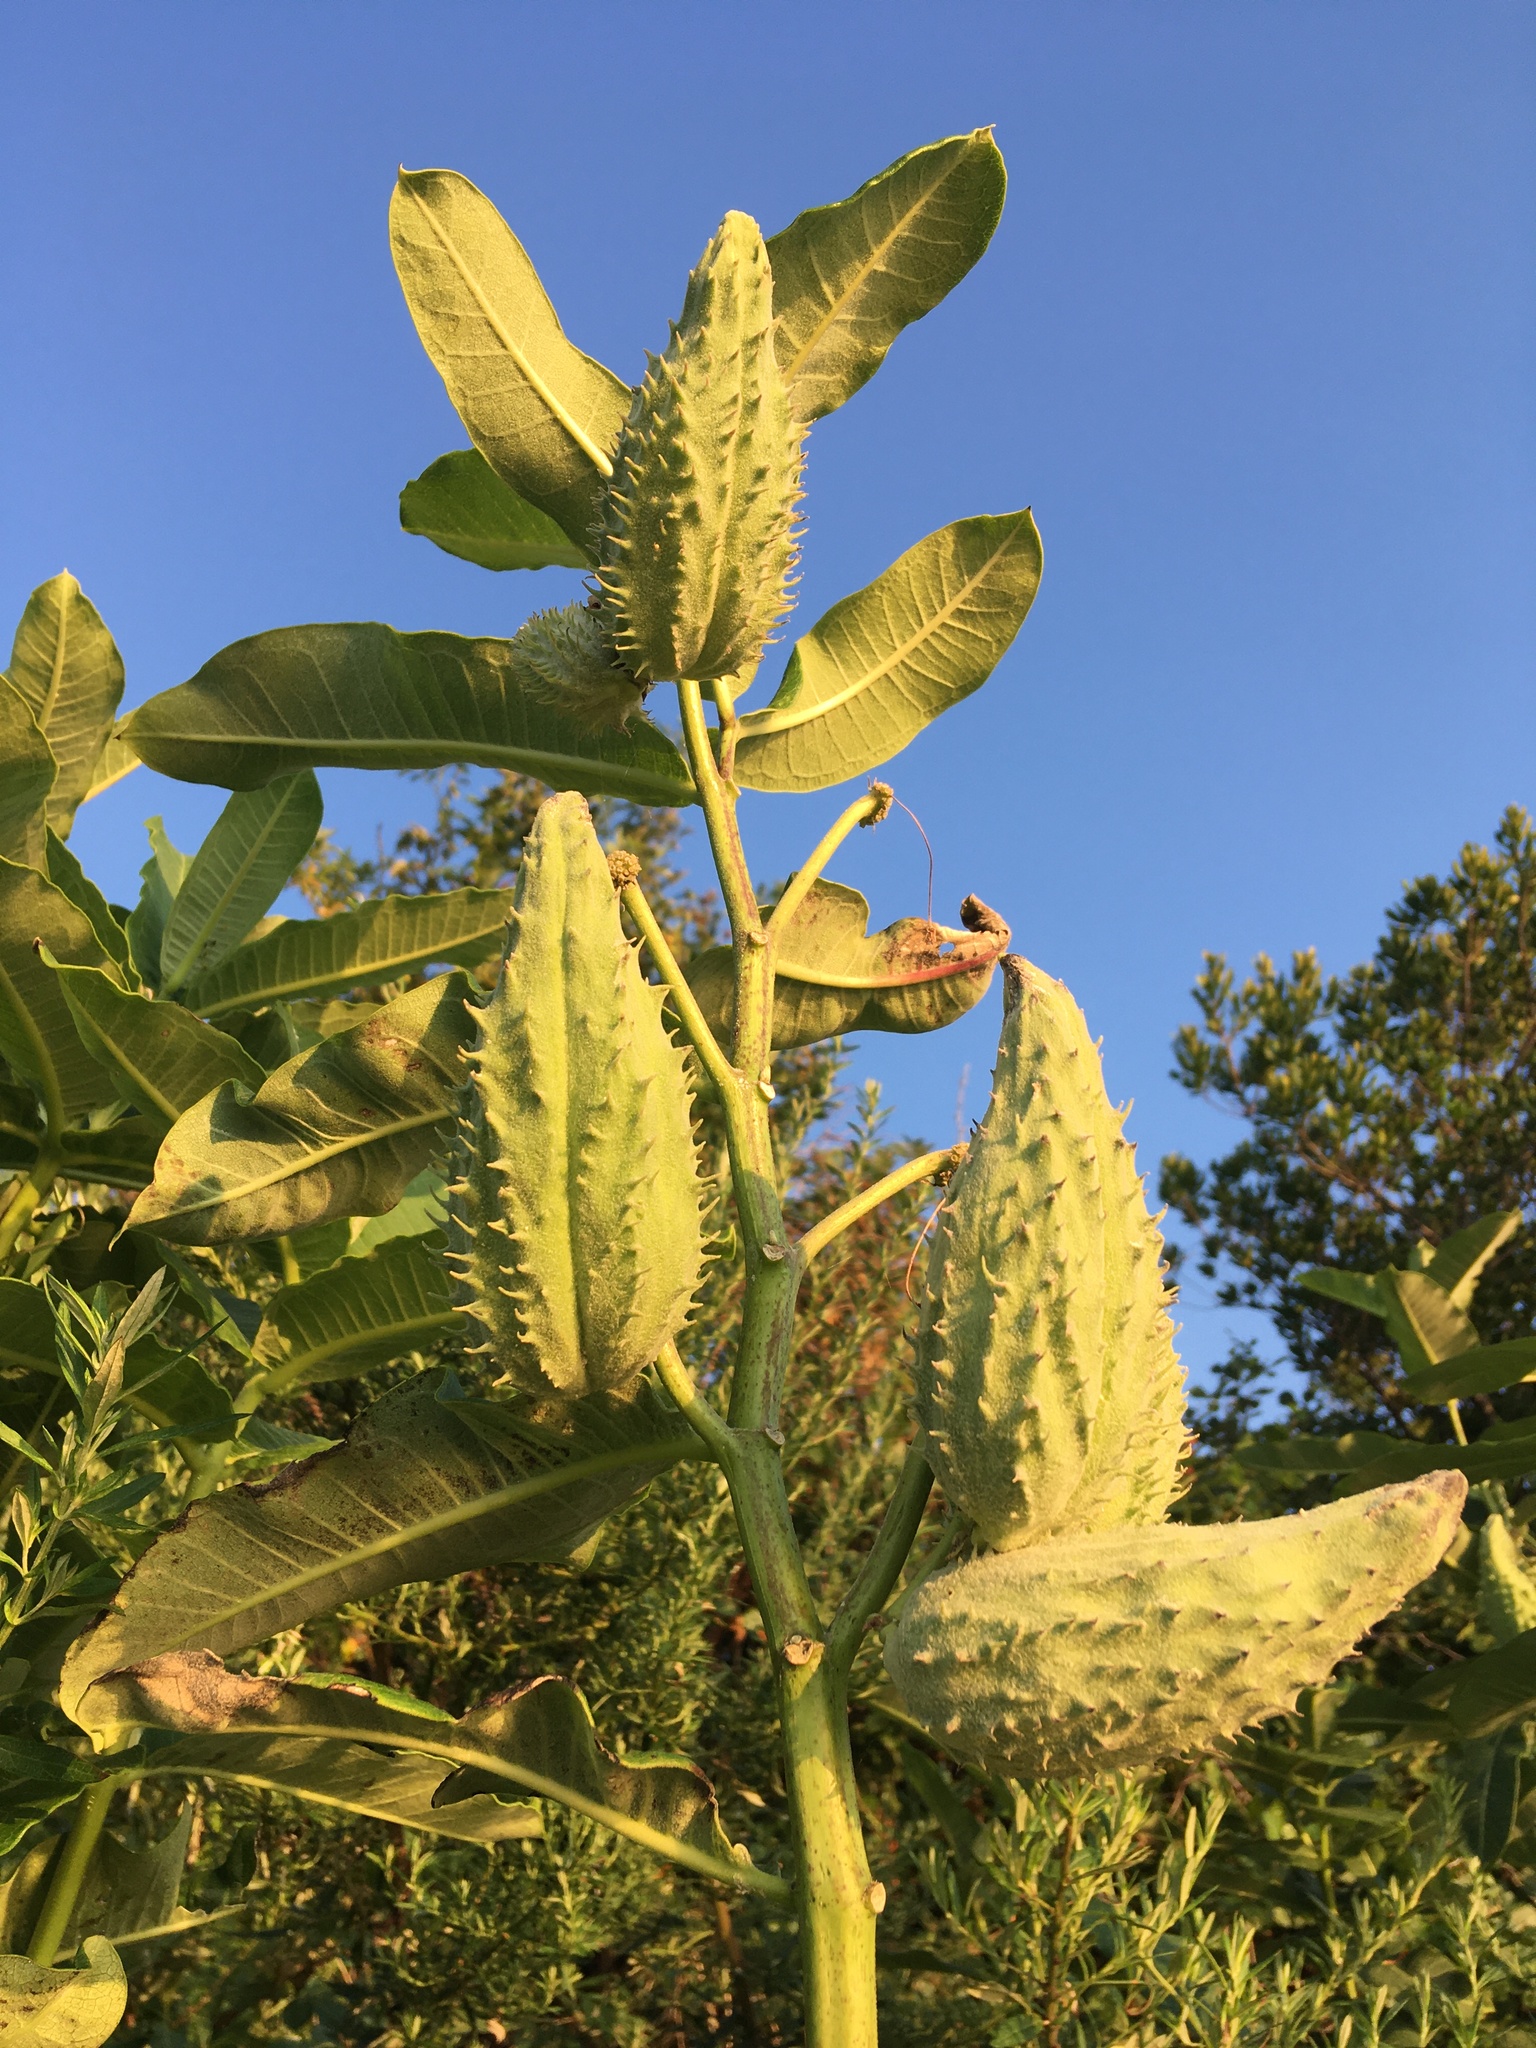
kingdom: Plantae
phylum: Tracheophyta
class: Magnoliopsida
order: Gentianales
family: Apocynaceae
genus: Asclepias
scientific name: Asclepias syriaca
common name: Common milkweed
